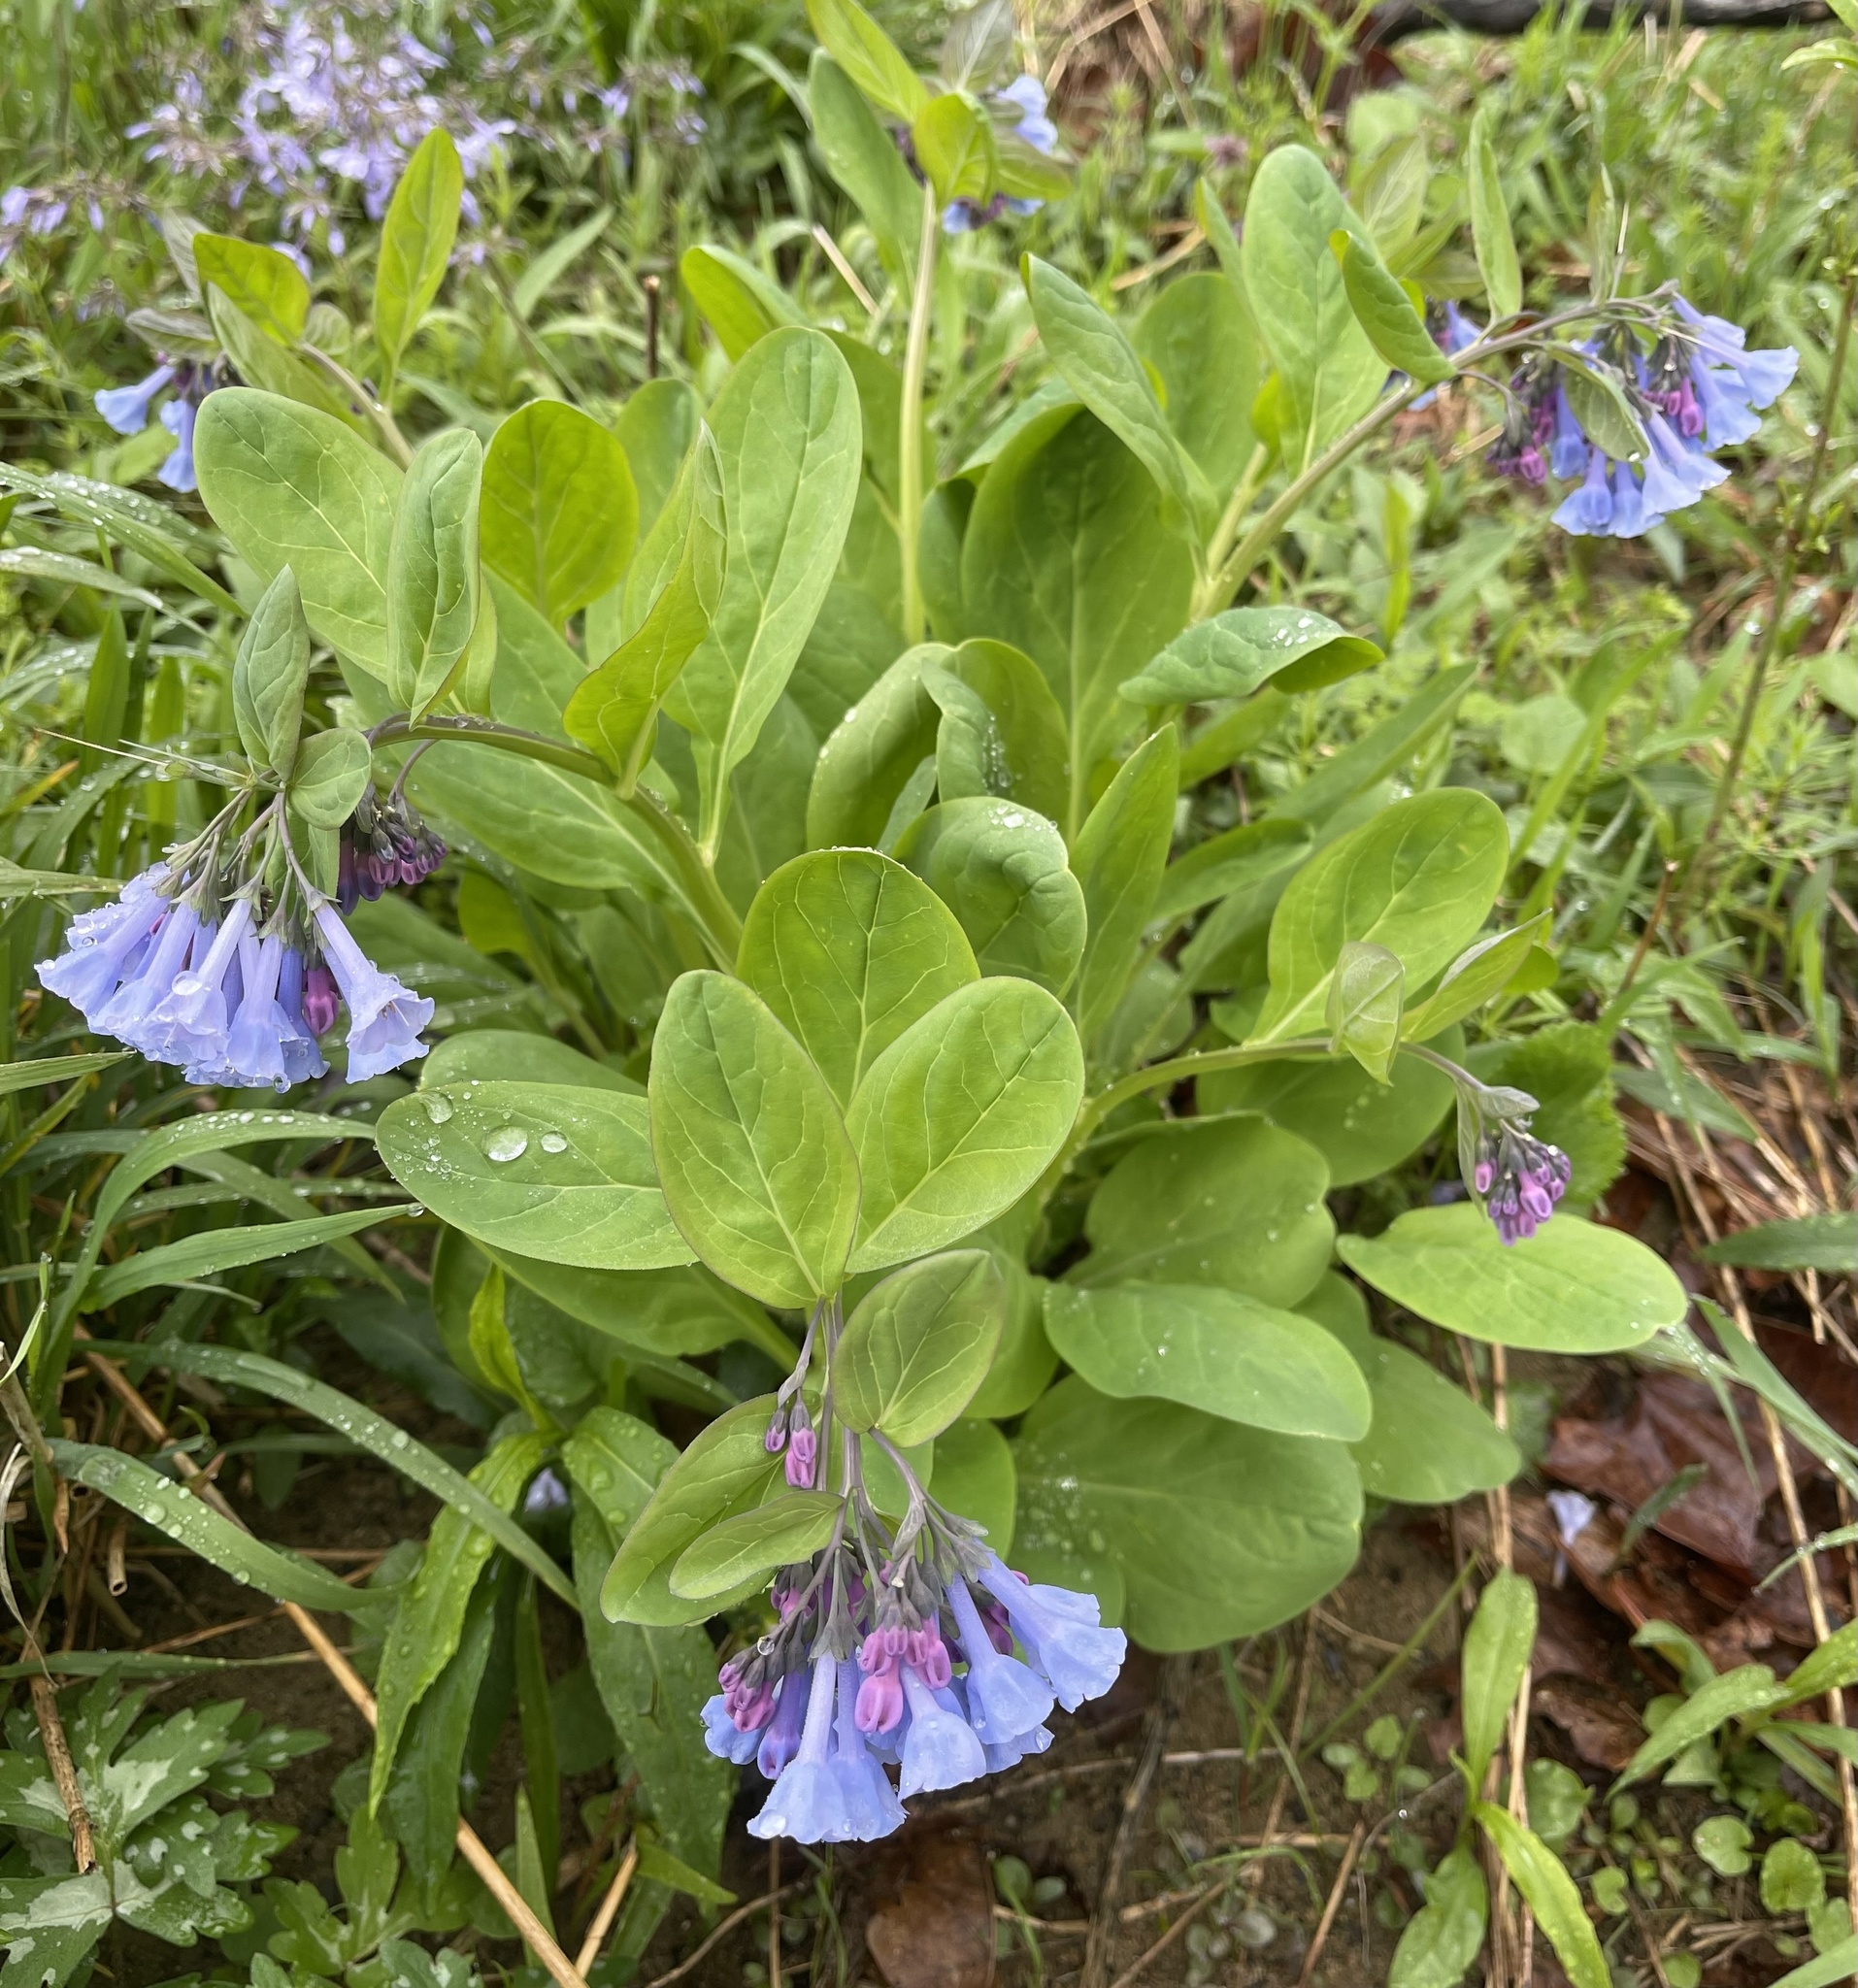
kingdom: Plantae
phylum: Tracheophyta
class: Magnoliopsida
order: Boraginales
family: Boraginaceae
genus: Mertensia
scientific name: Mertensia virginica
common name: Virginia bluebells
